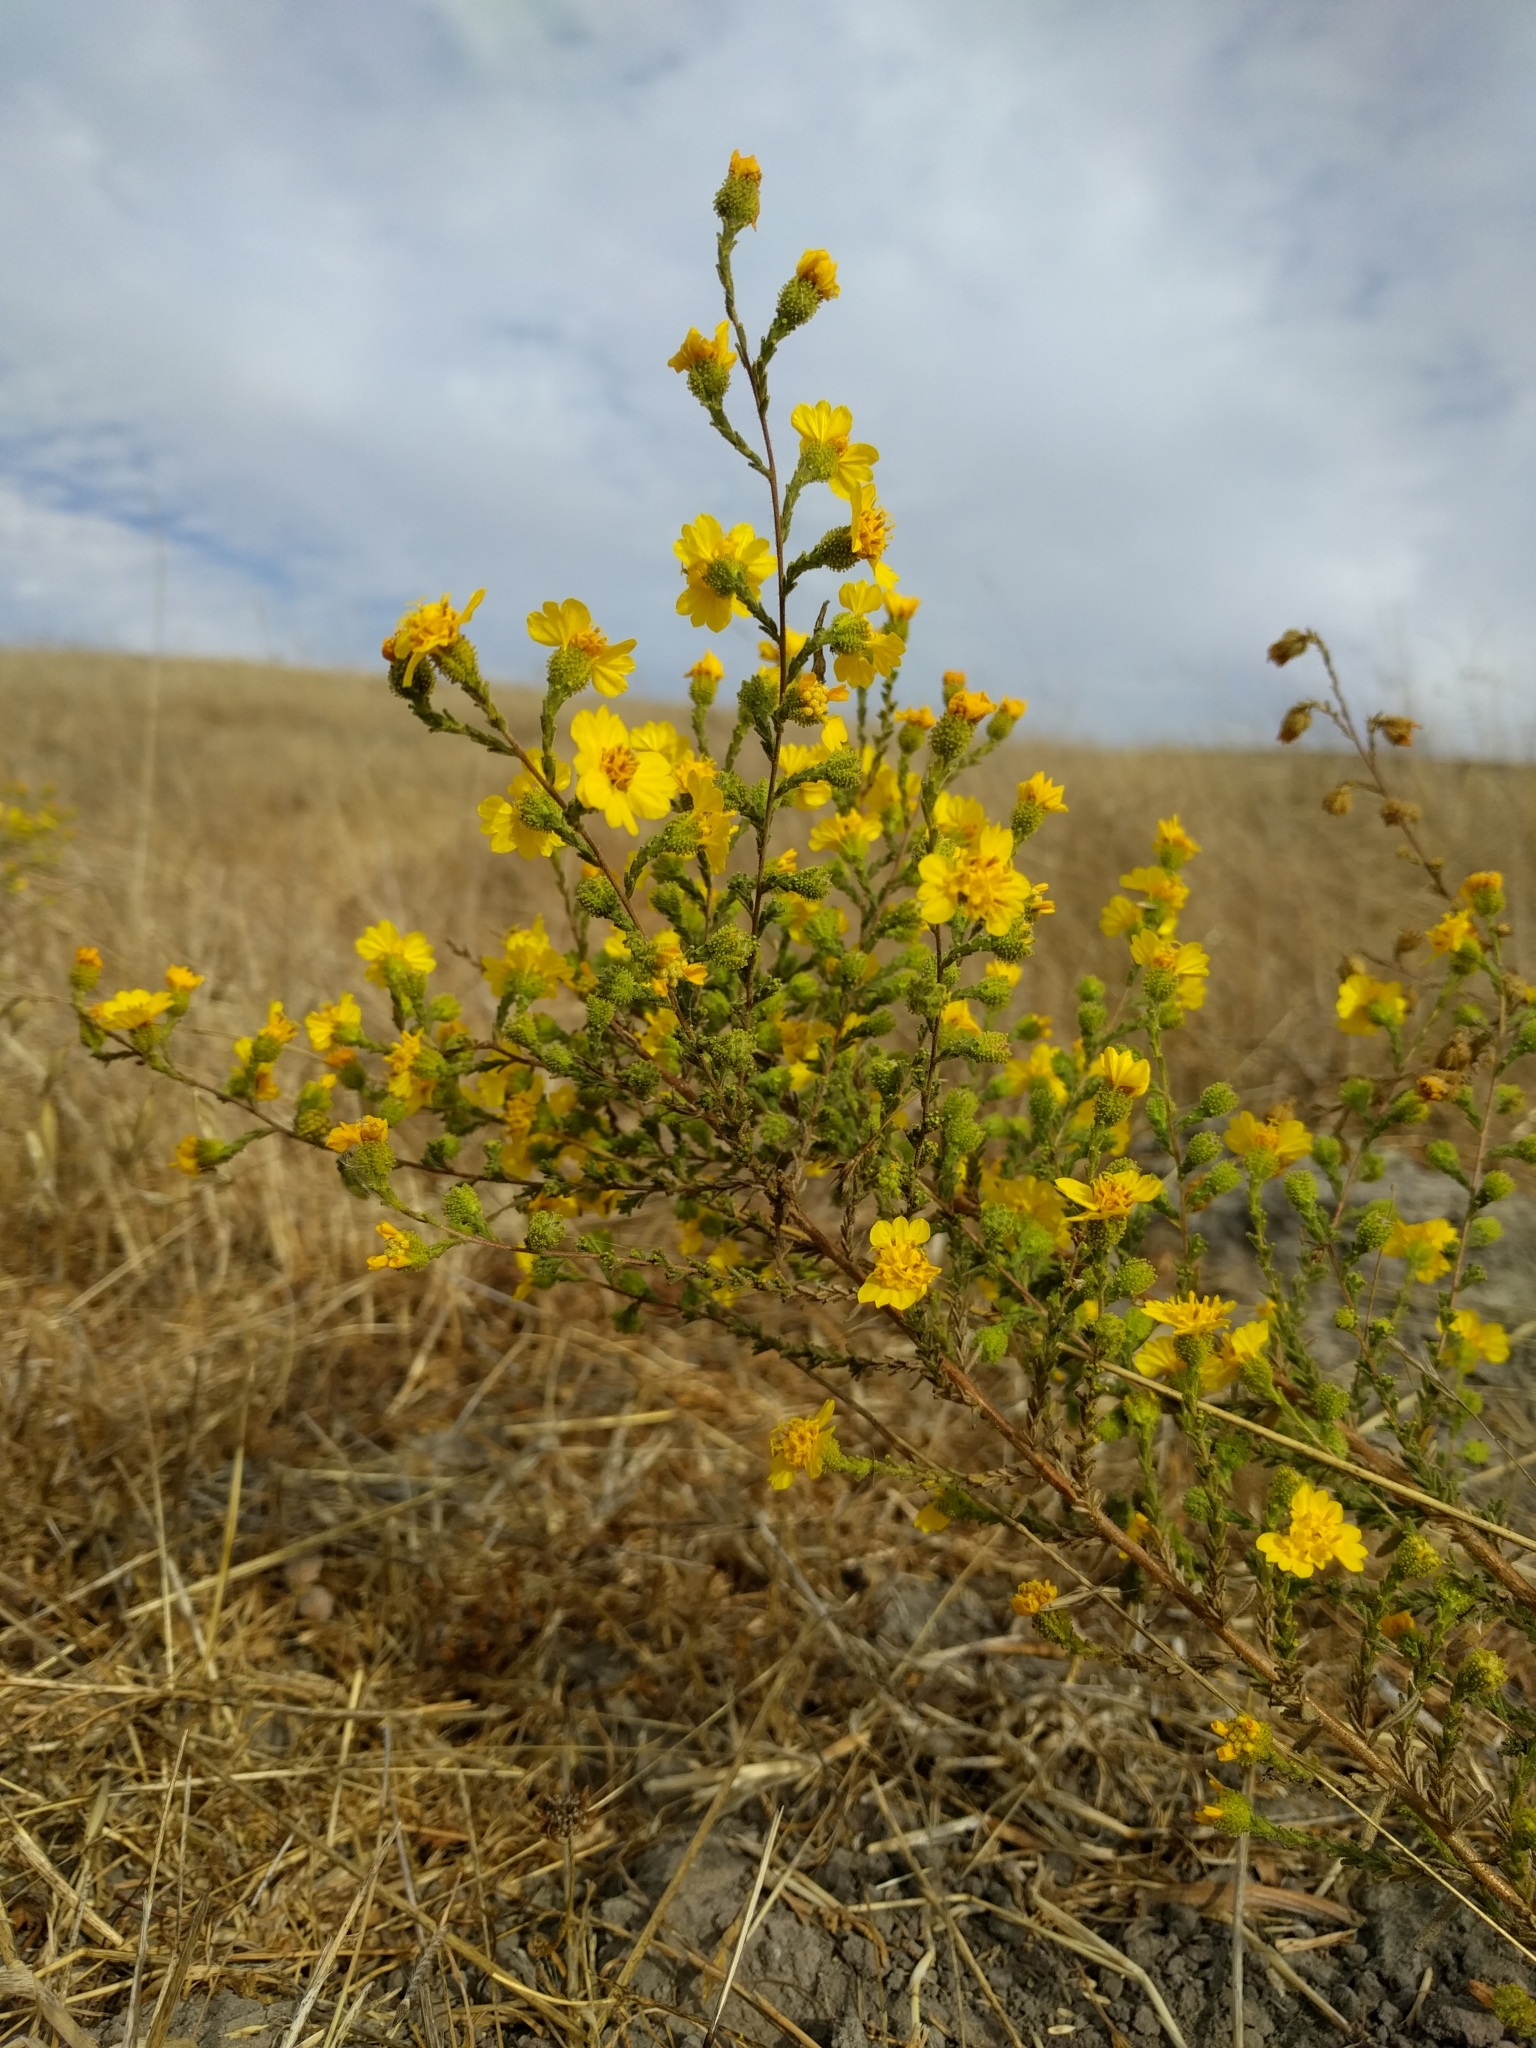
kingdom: Plantae
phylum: Tracheophyta
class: Magnoliopsida
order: Asterales
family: Asteraceae
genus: Holocarpha
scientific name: Holocarpha heermannii
